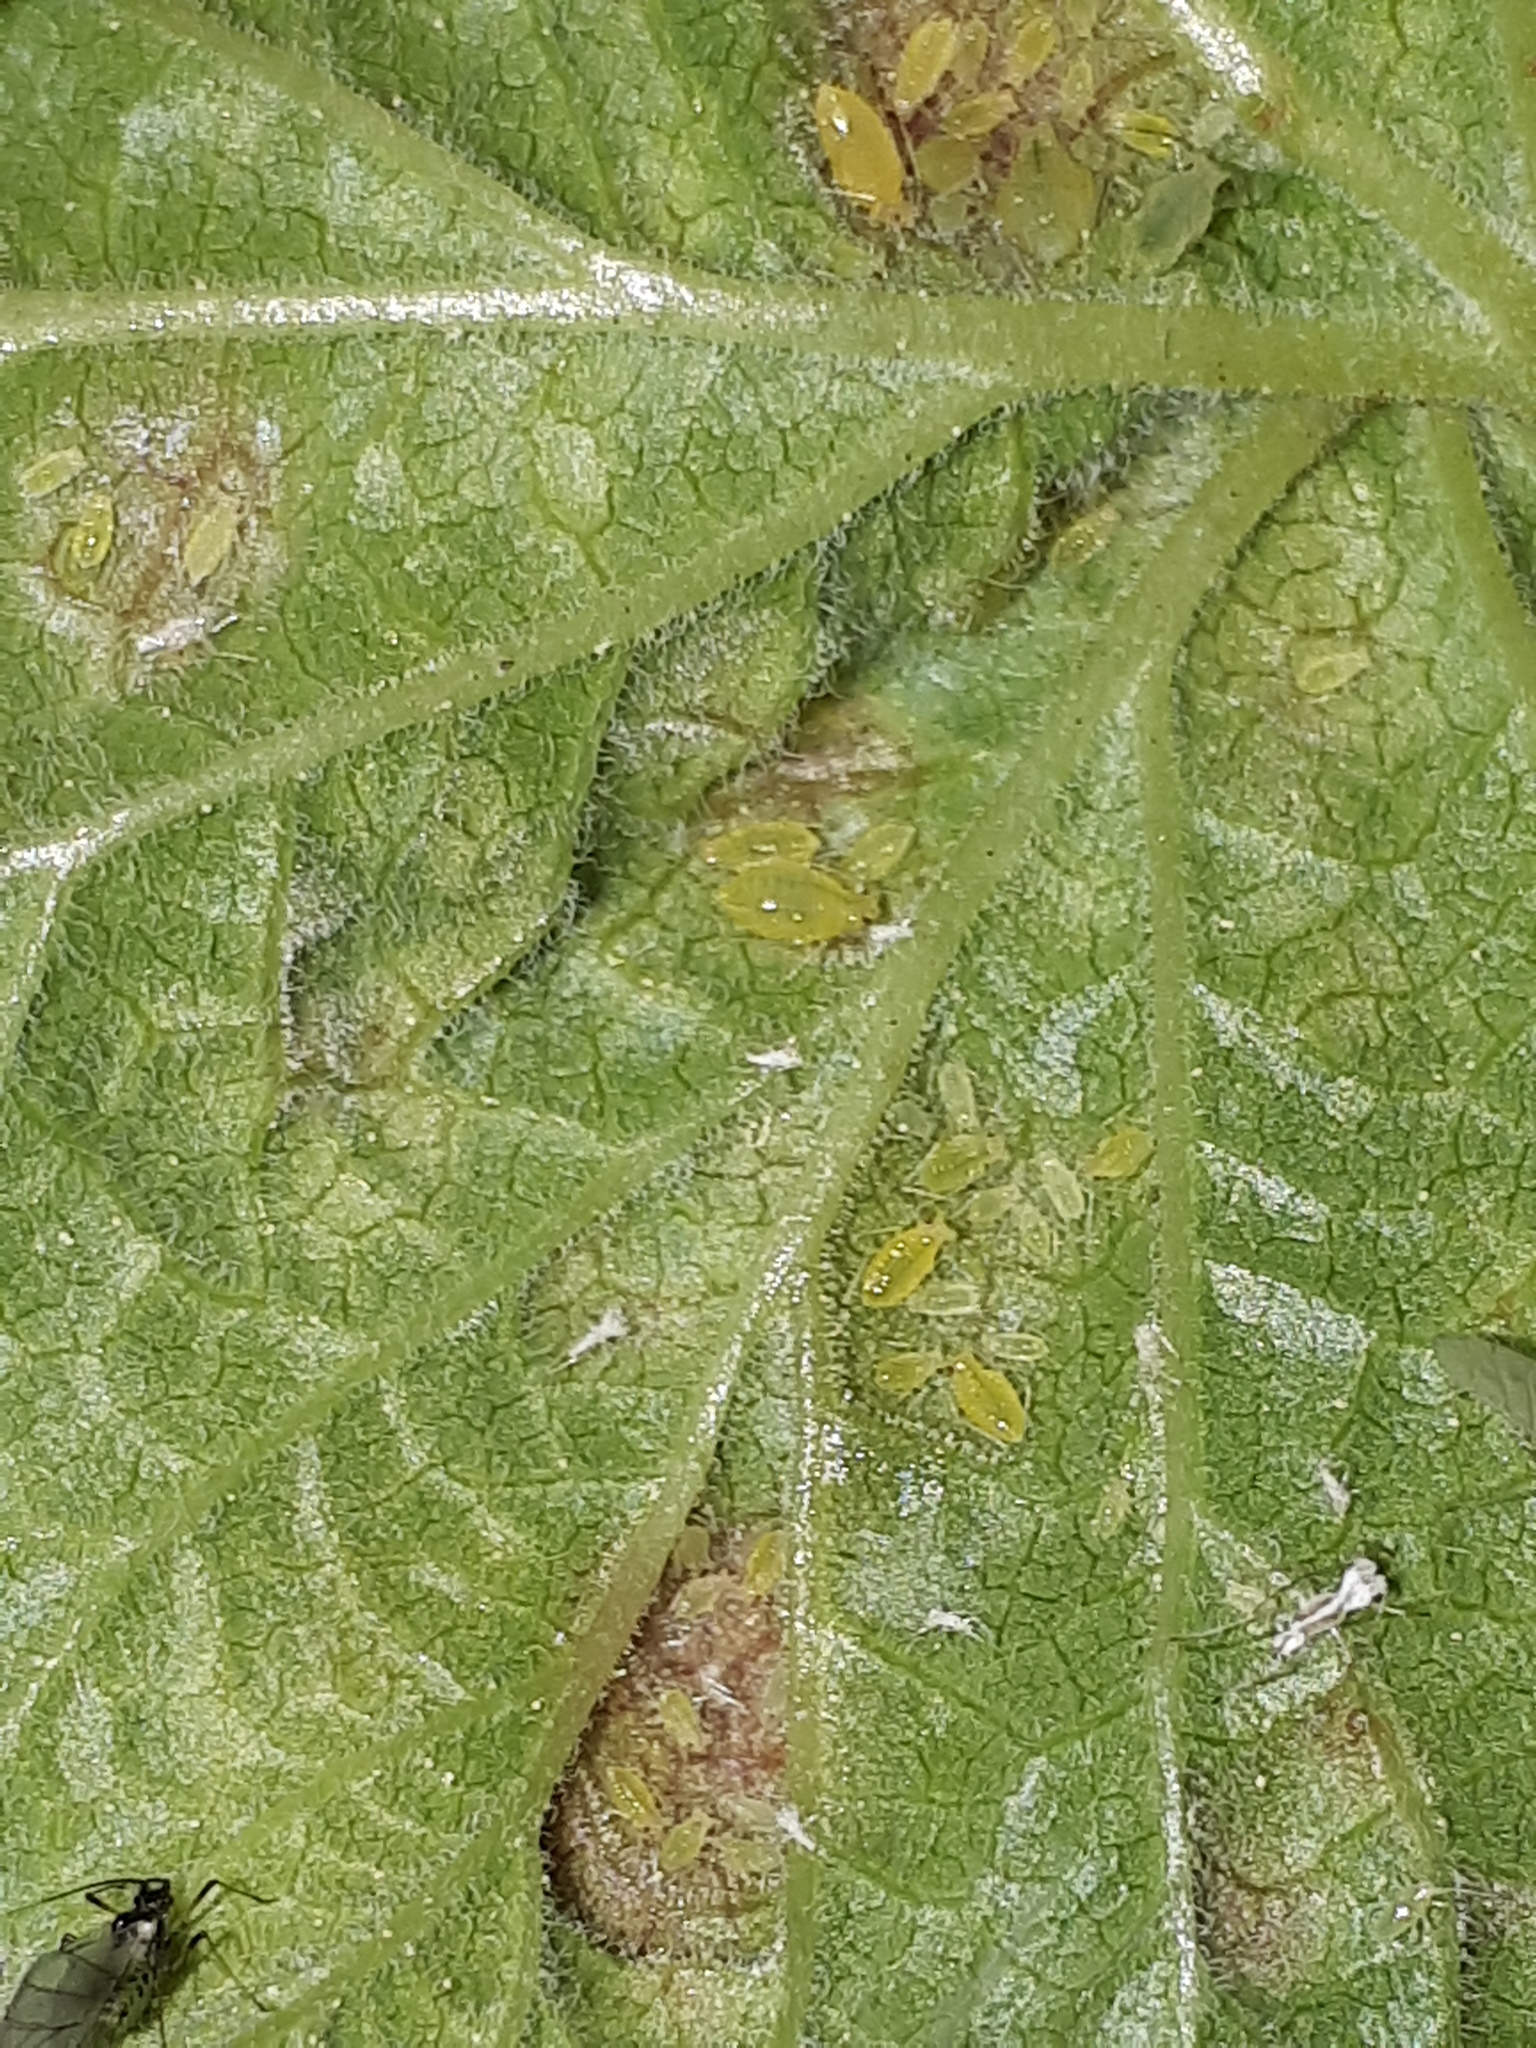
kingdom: Animalia
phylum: Arthropoda
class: Insecta
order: Hemiptera
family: Aphididae
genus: Cryptomyzus
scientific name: Cryptomyzus ribis
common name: Currant aphid
